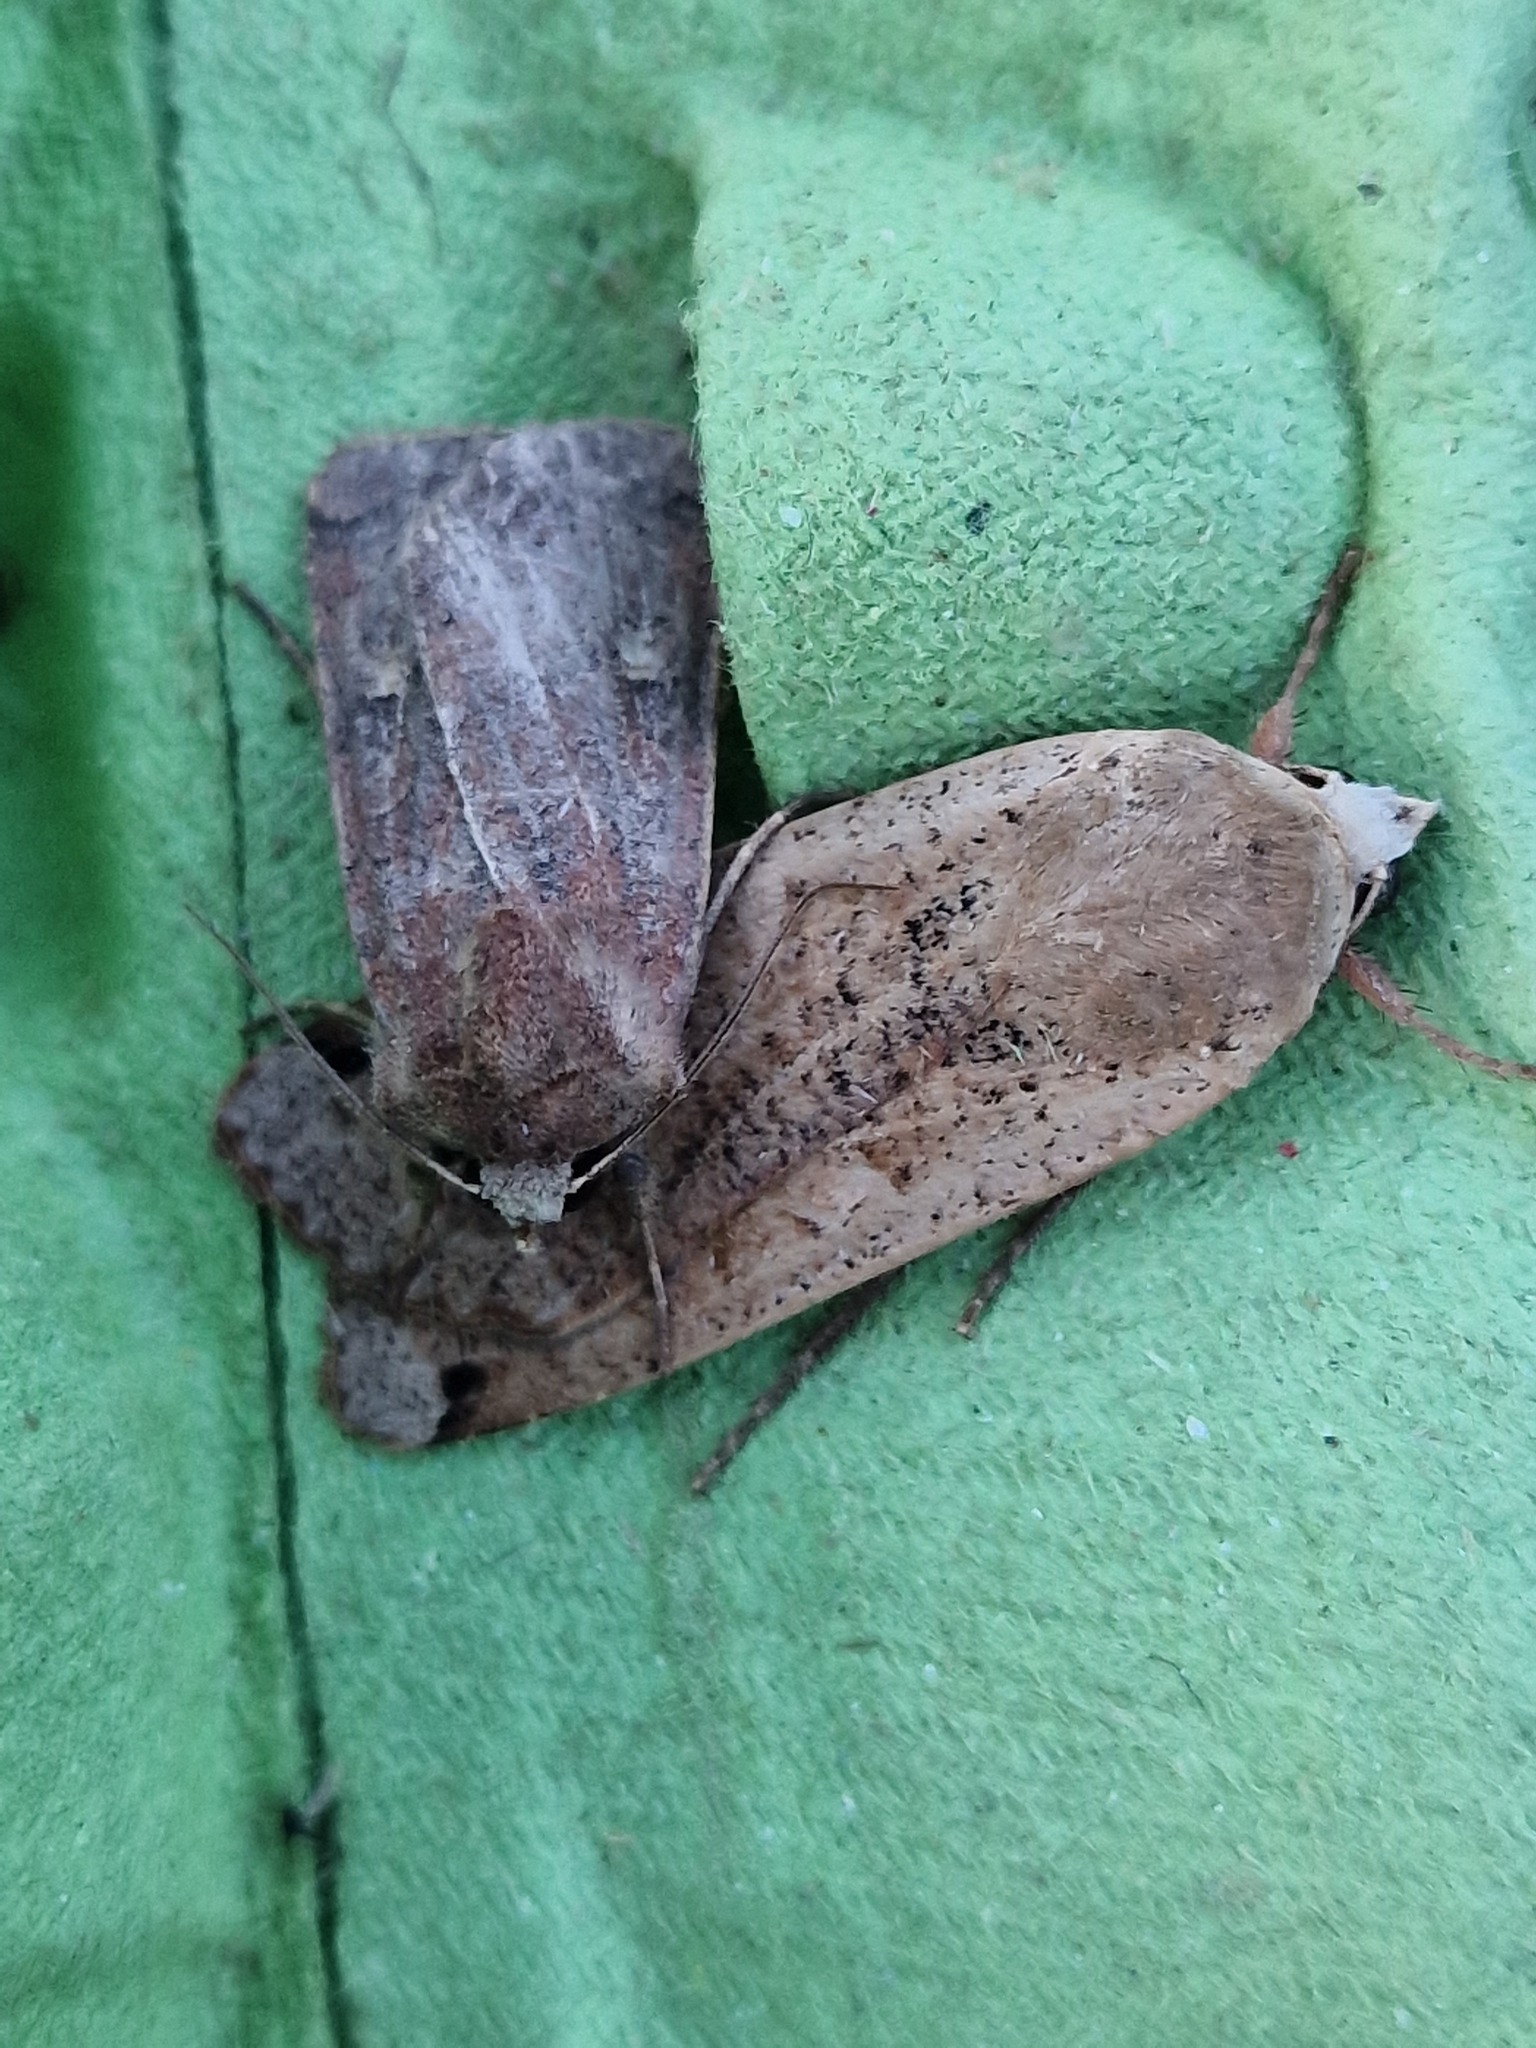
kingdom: Animalia
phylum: Arthropoda
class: Insecta
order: Lepidoptera
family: Noctuidae
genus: Noctua
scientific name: Noctua pronuba
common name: Large yellow underwing
